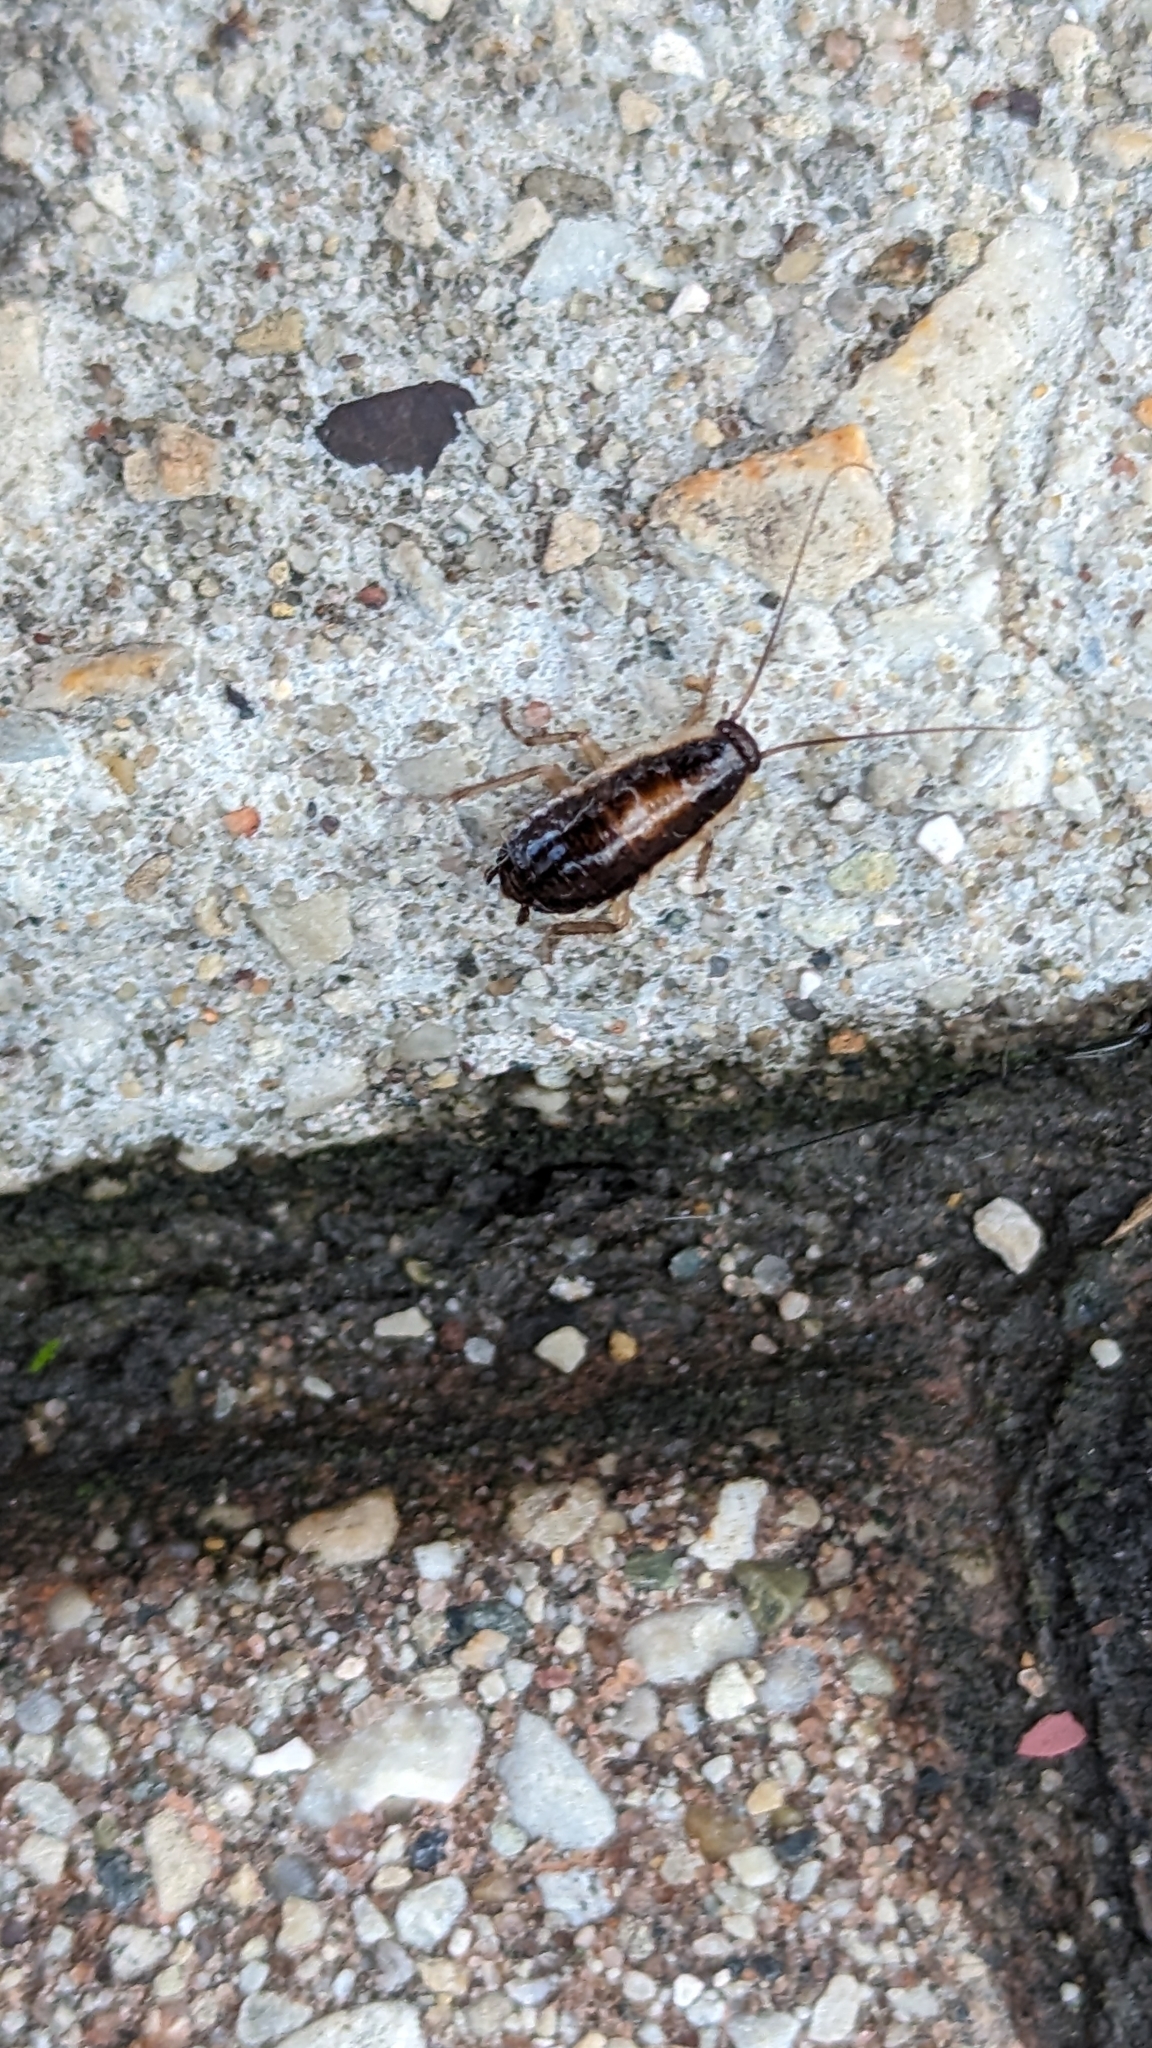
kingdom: Animalia
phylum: Arthropoda
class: Insecta
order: Blattodea
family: Ectobiidae
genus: Blattella
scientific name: Blattella germanica
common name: German cockroach
